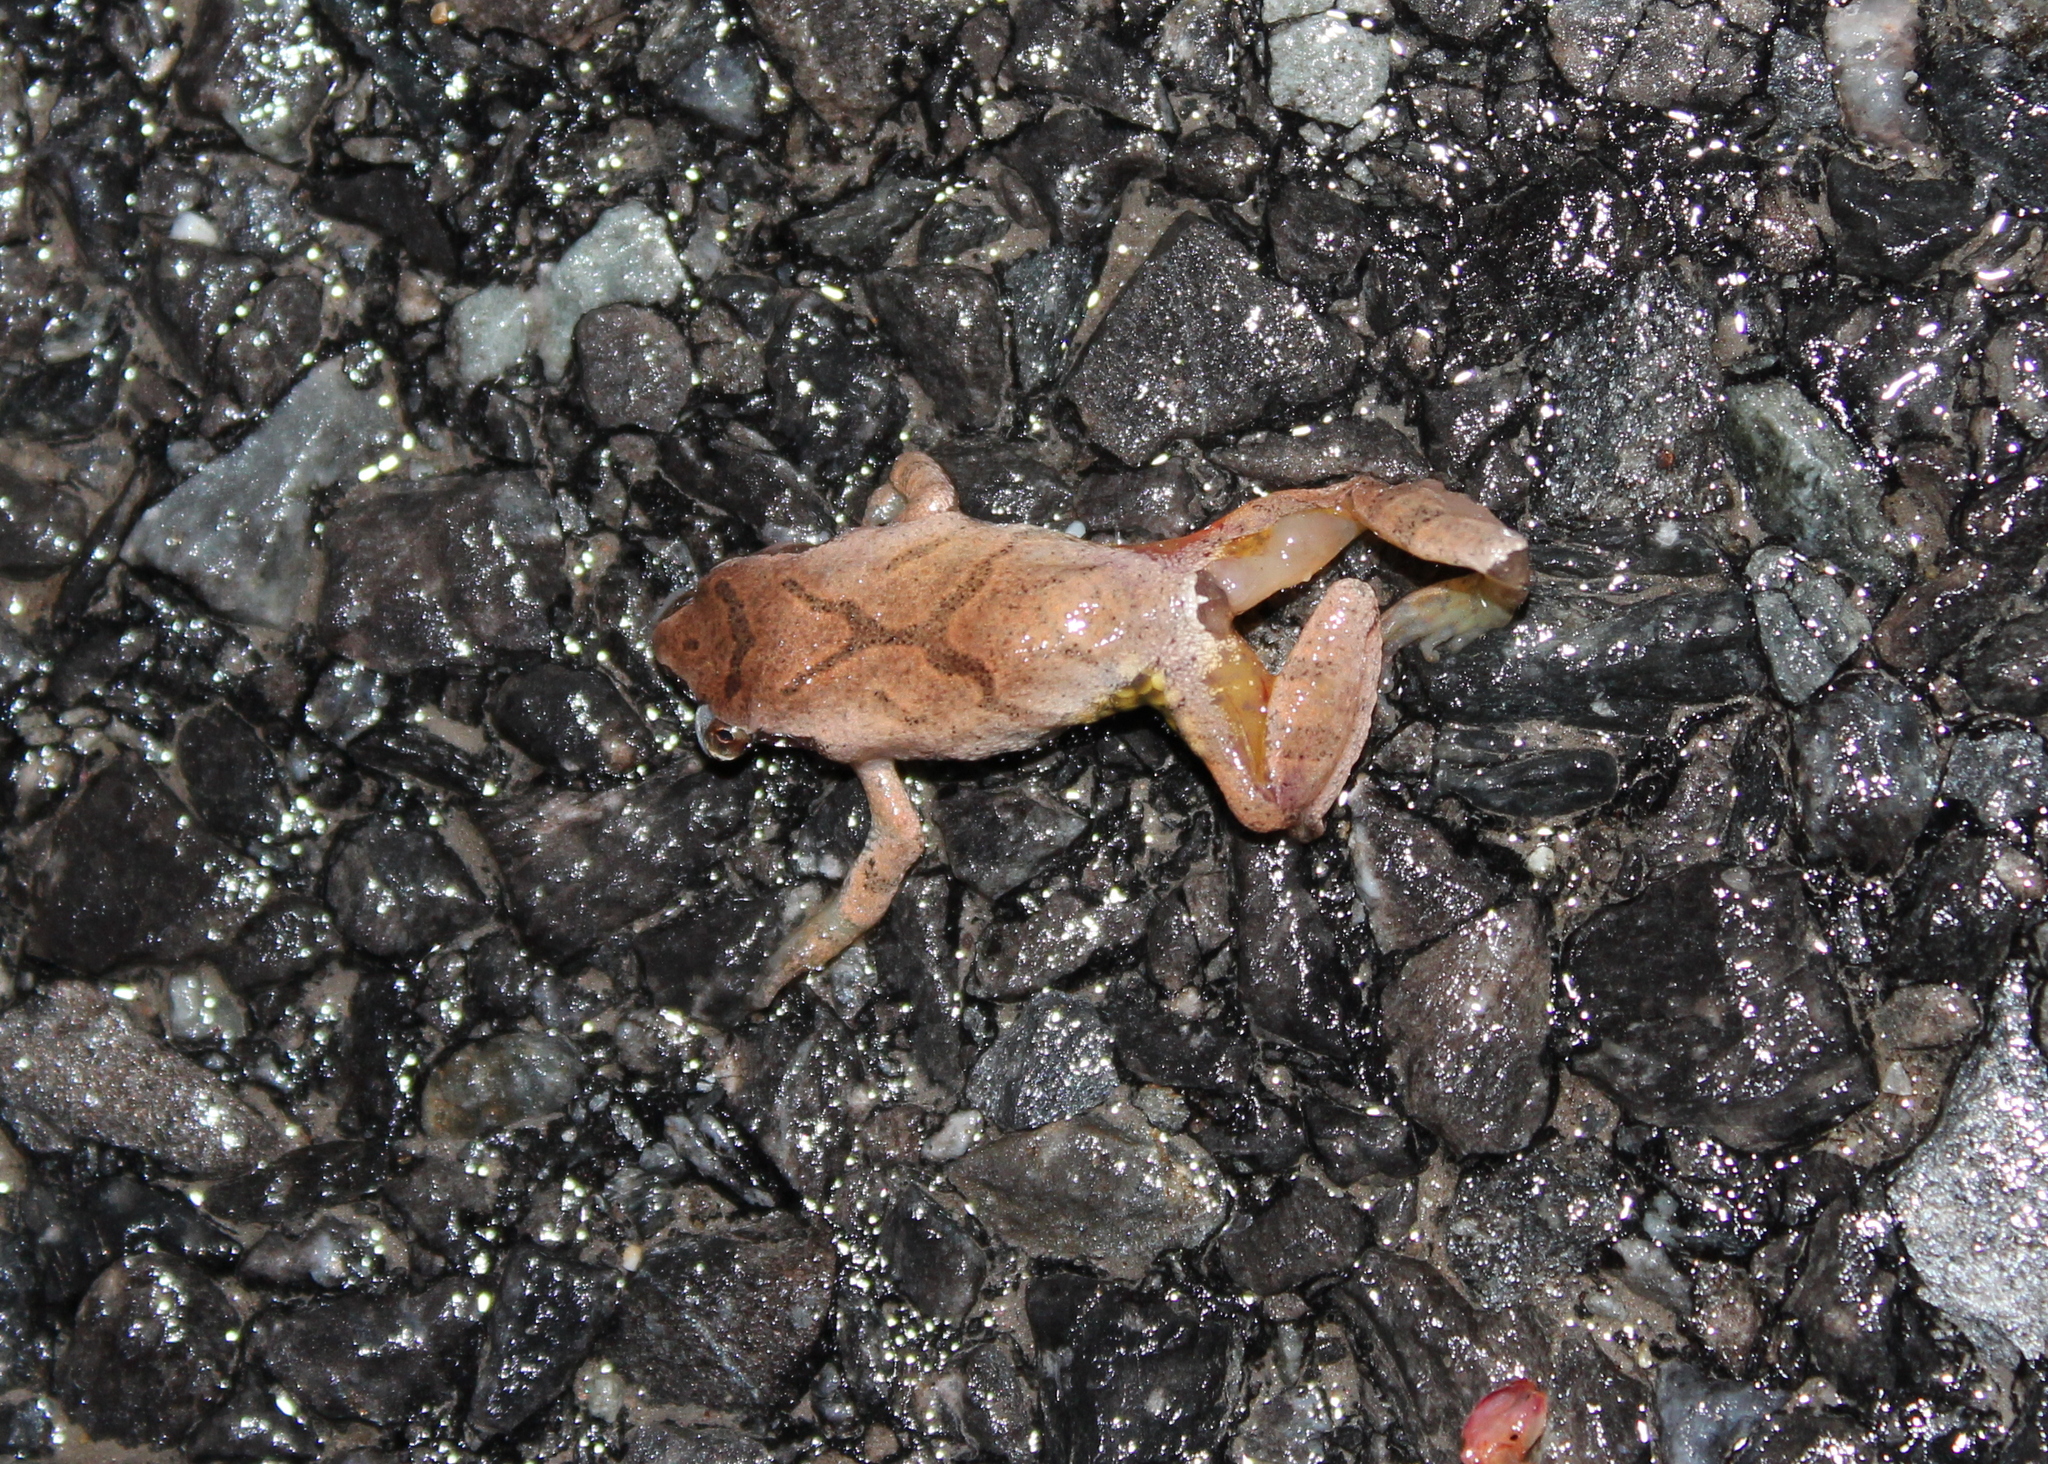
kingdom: Animalia
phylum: Chordata
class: Amphibia
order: Anura
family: Hylidae
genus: Pseudacris
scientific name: Pseudacris crucifer
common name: Spring peeper
